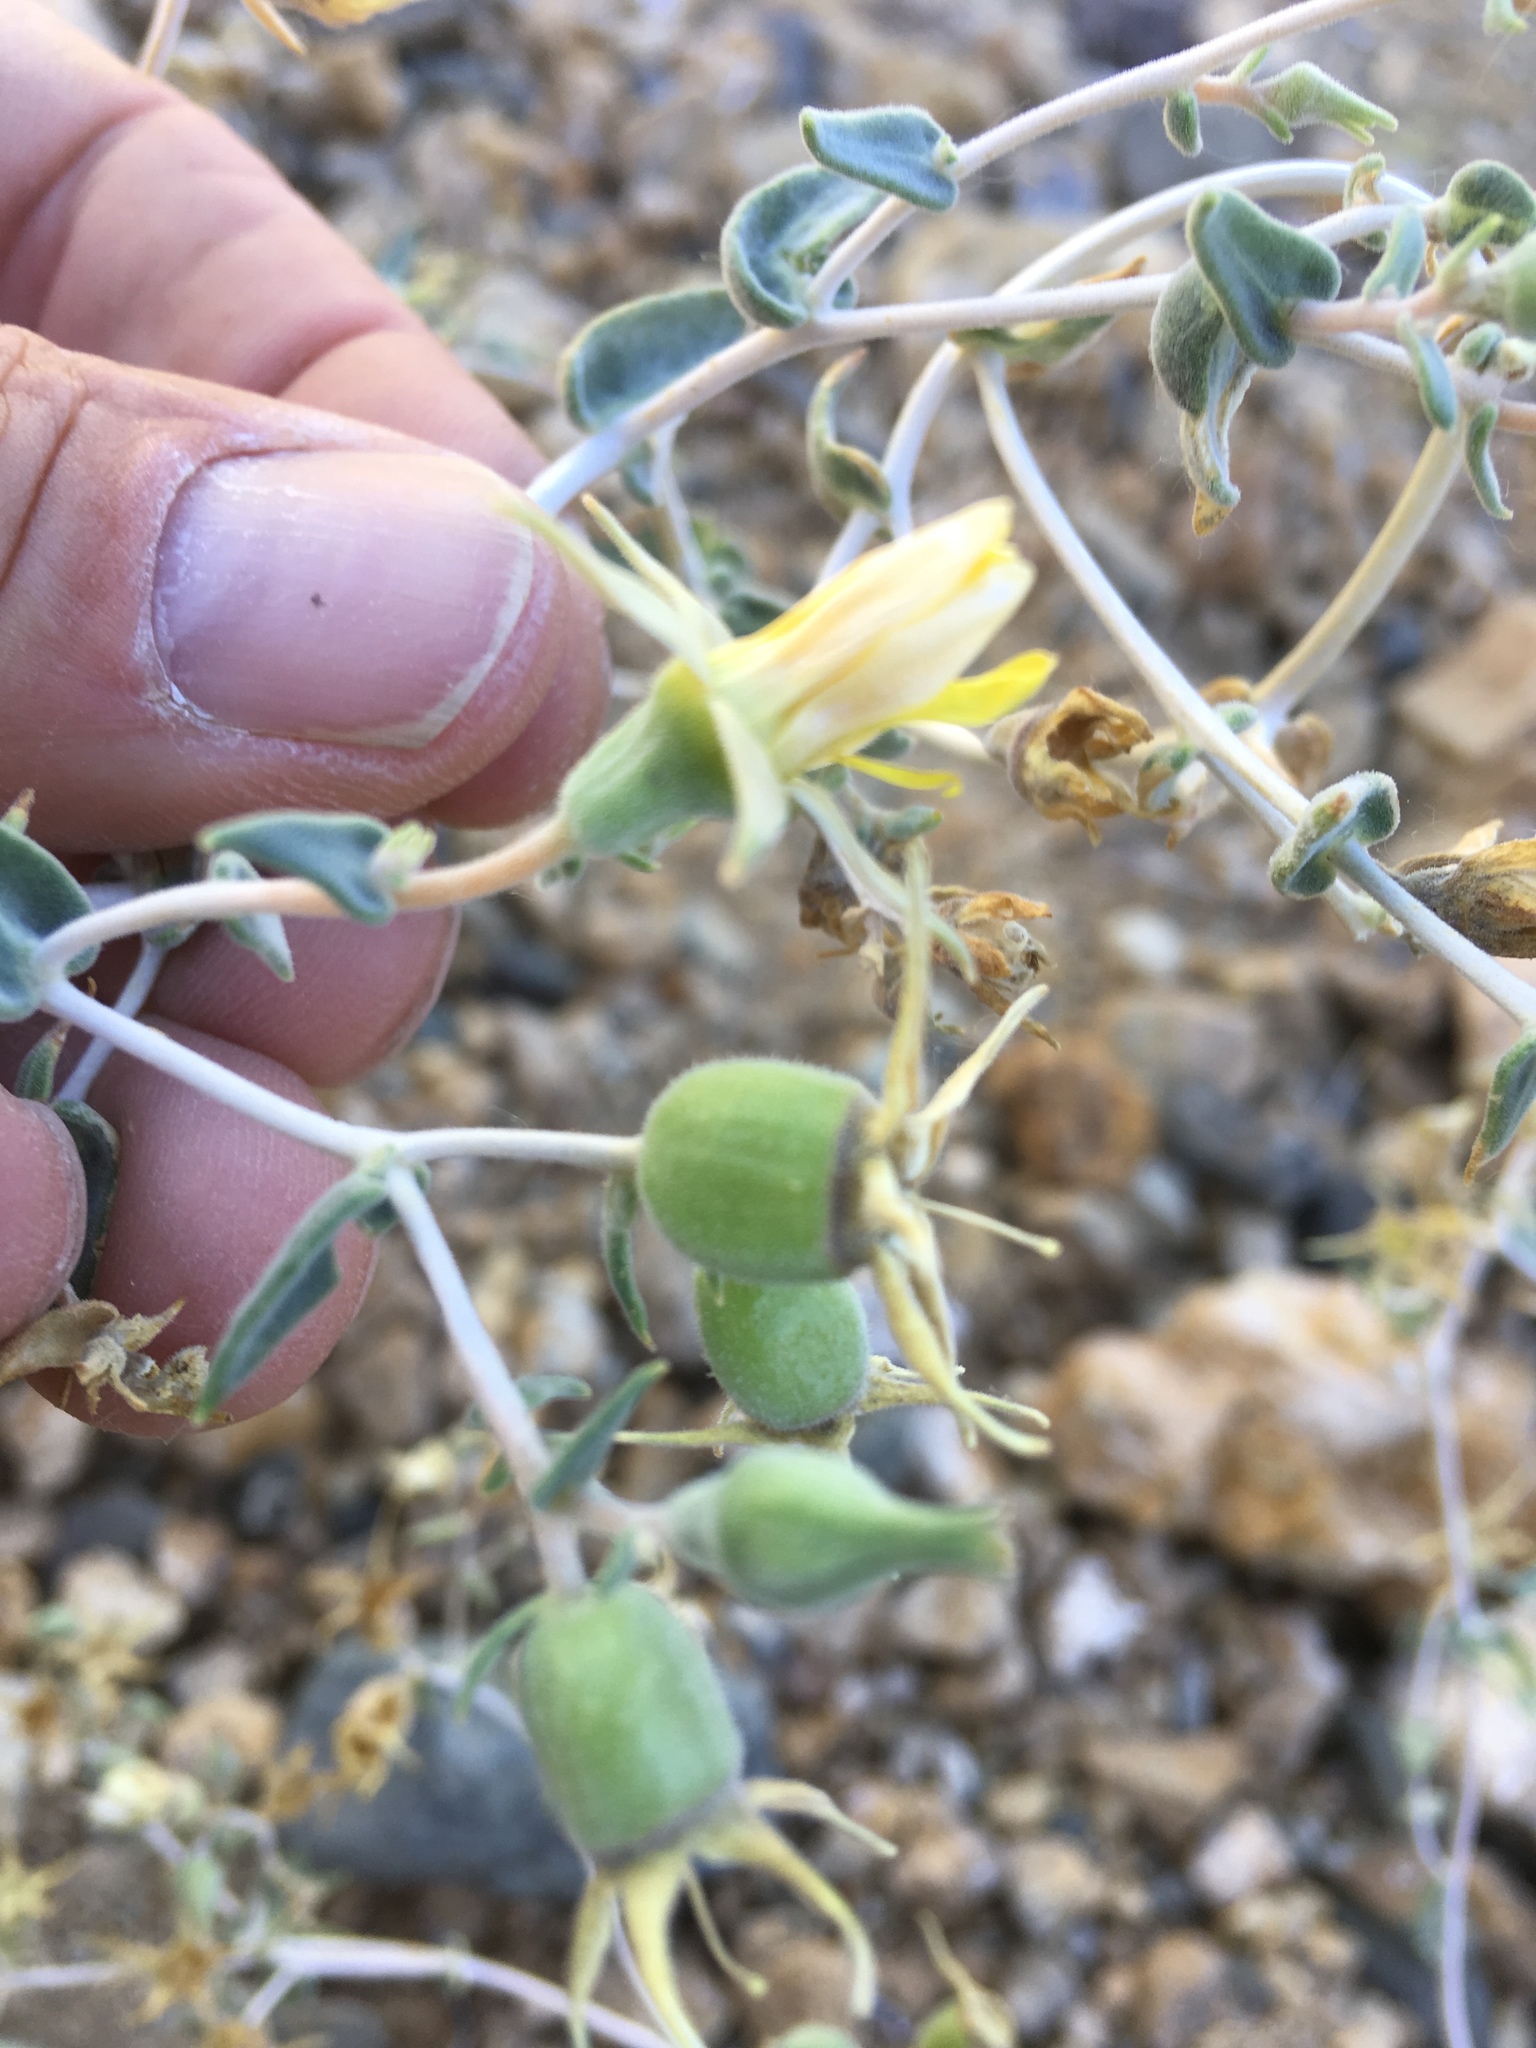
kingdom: Plantae
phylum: Tracheophyta
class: Magnoliopsida
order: Cornales
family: Loasaceae
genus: Mentzelia
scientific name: Mentzelia oreophila
